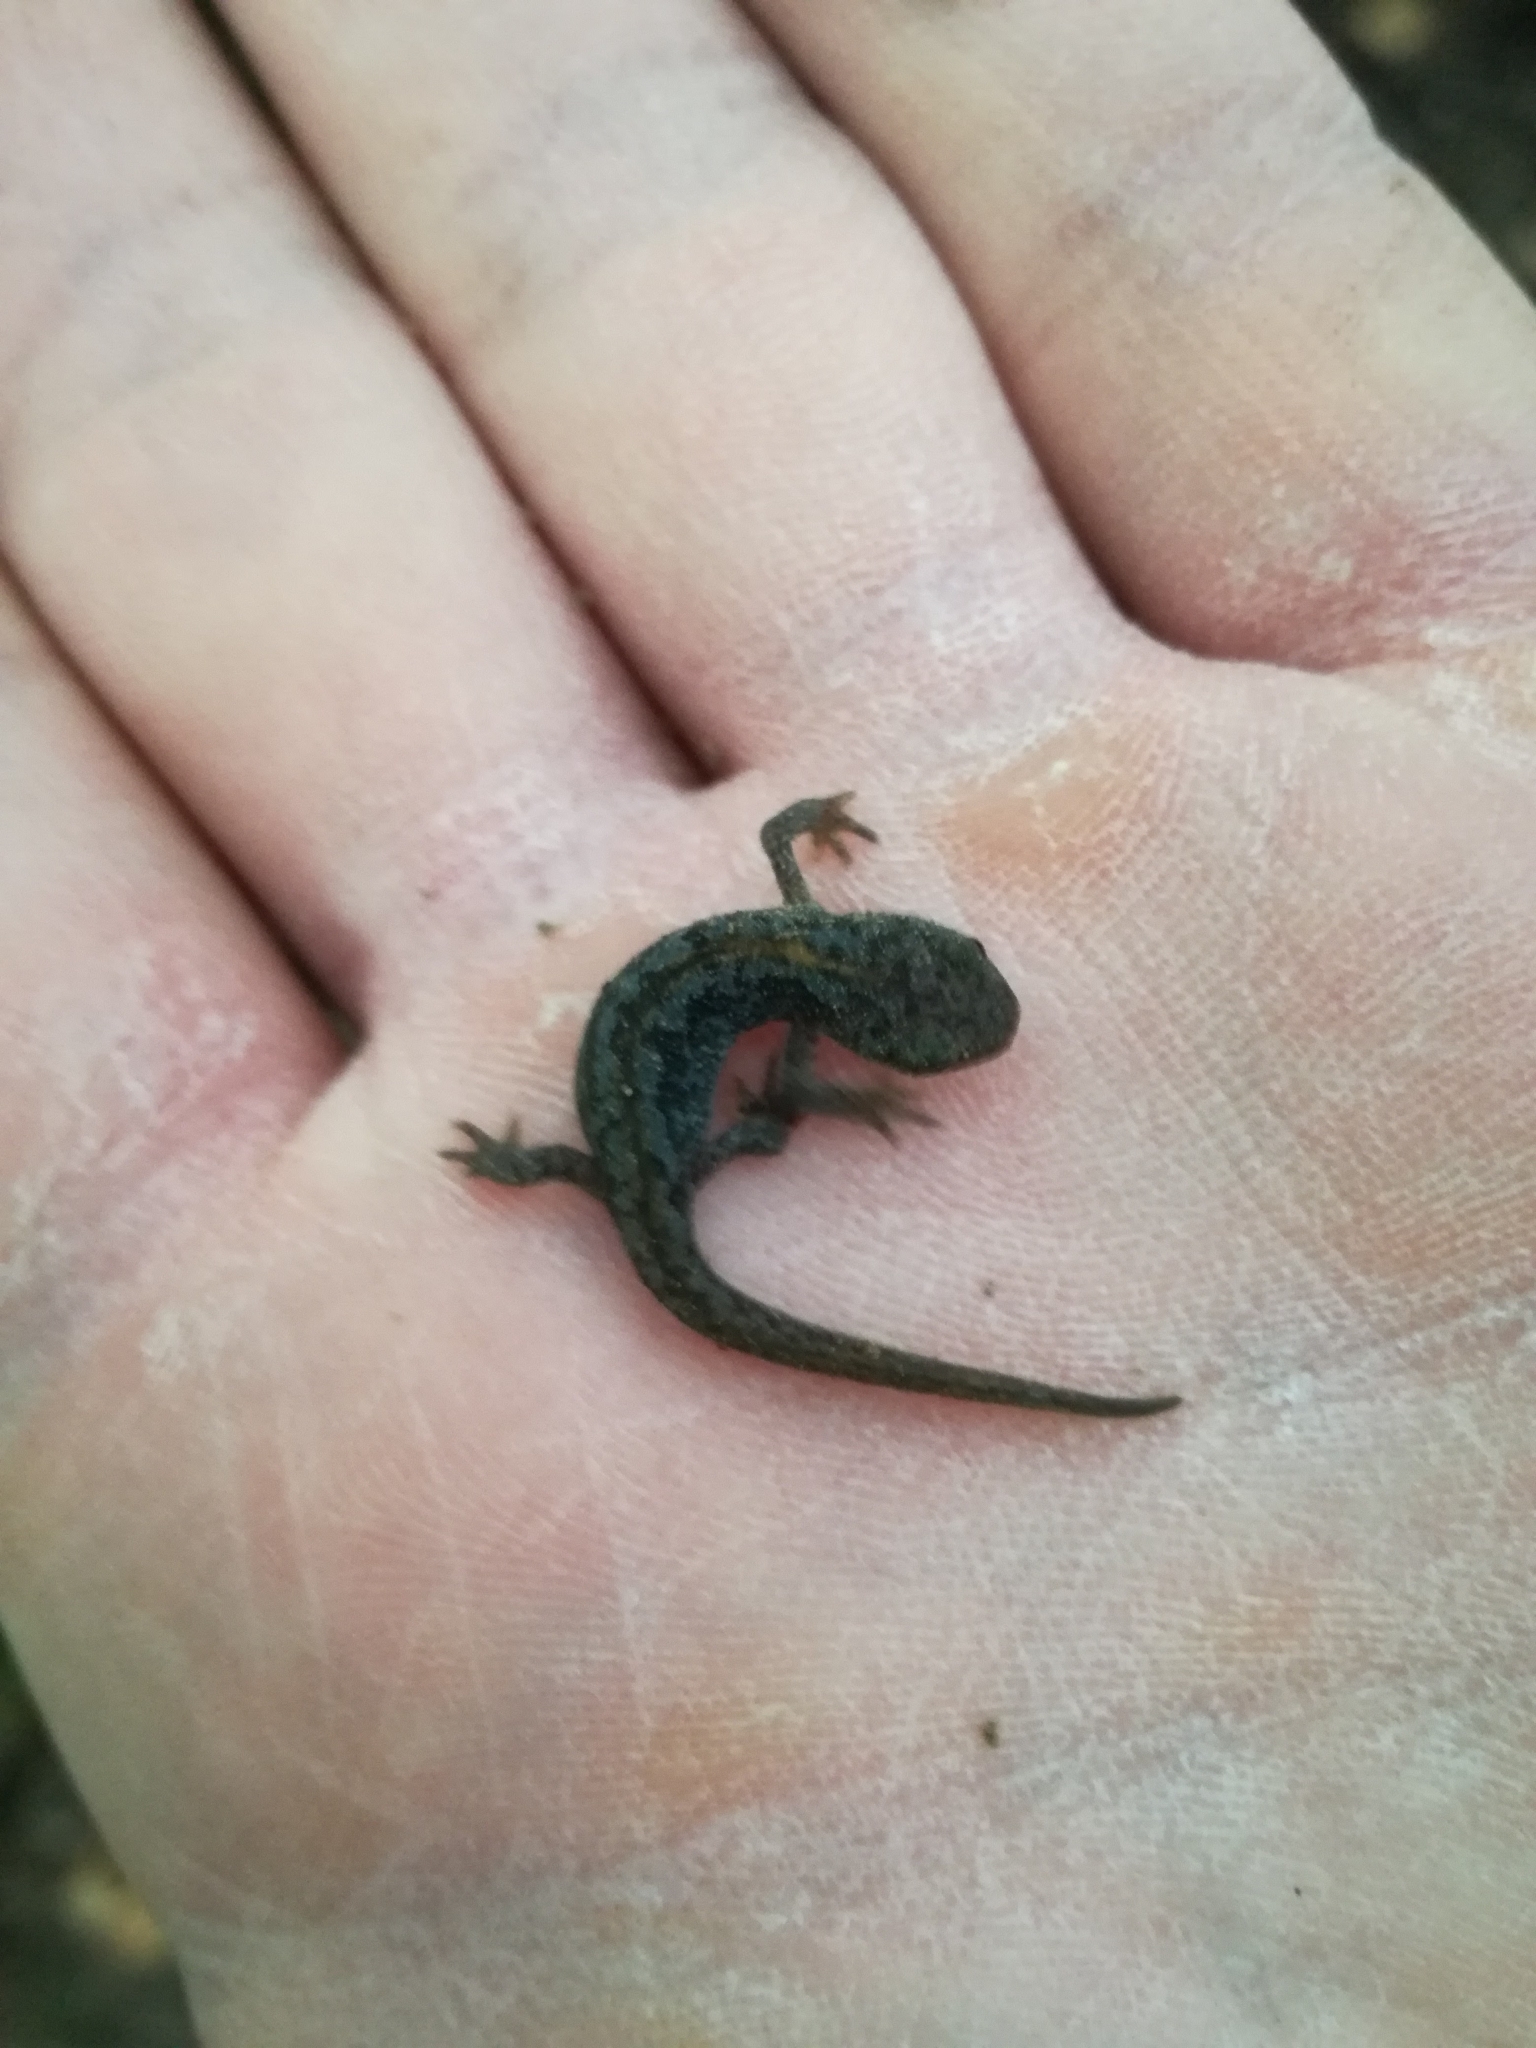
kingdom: Animalia
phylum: Chordata
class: Amphibia
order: Caudata
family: Salamandridae
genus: Ichthyosaura
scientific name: Ichthyosaura alpestris
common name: Alpine newt
